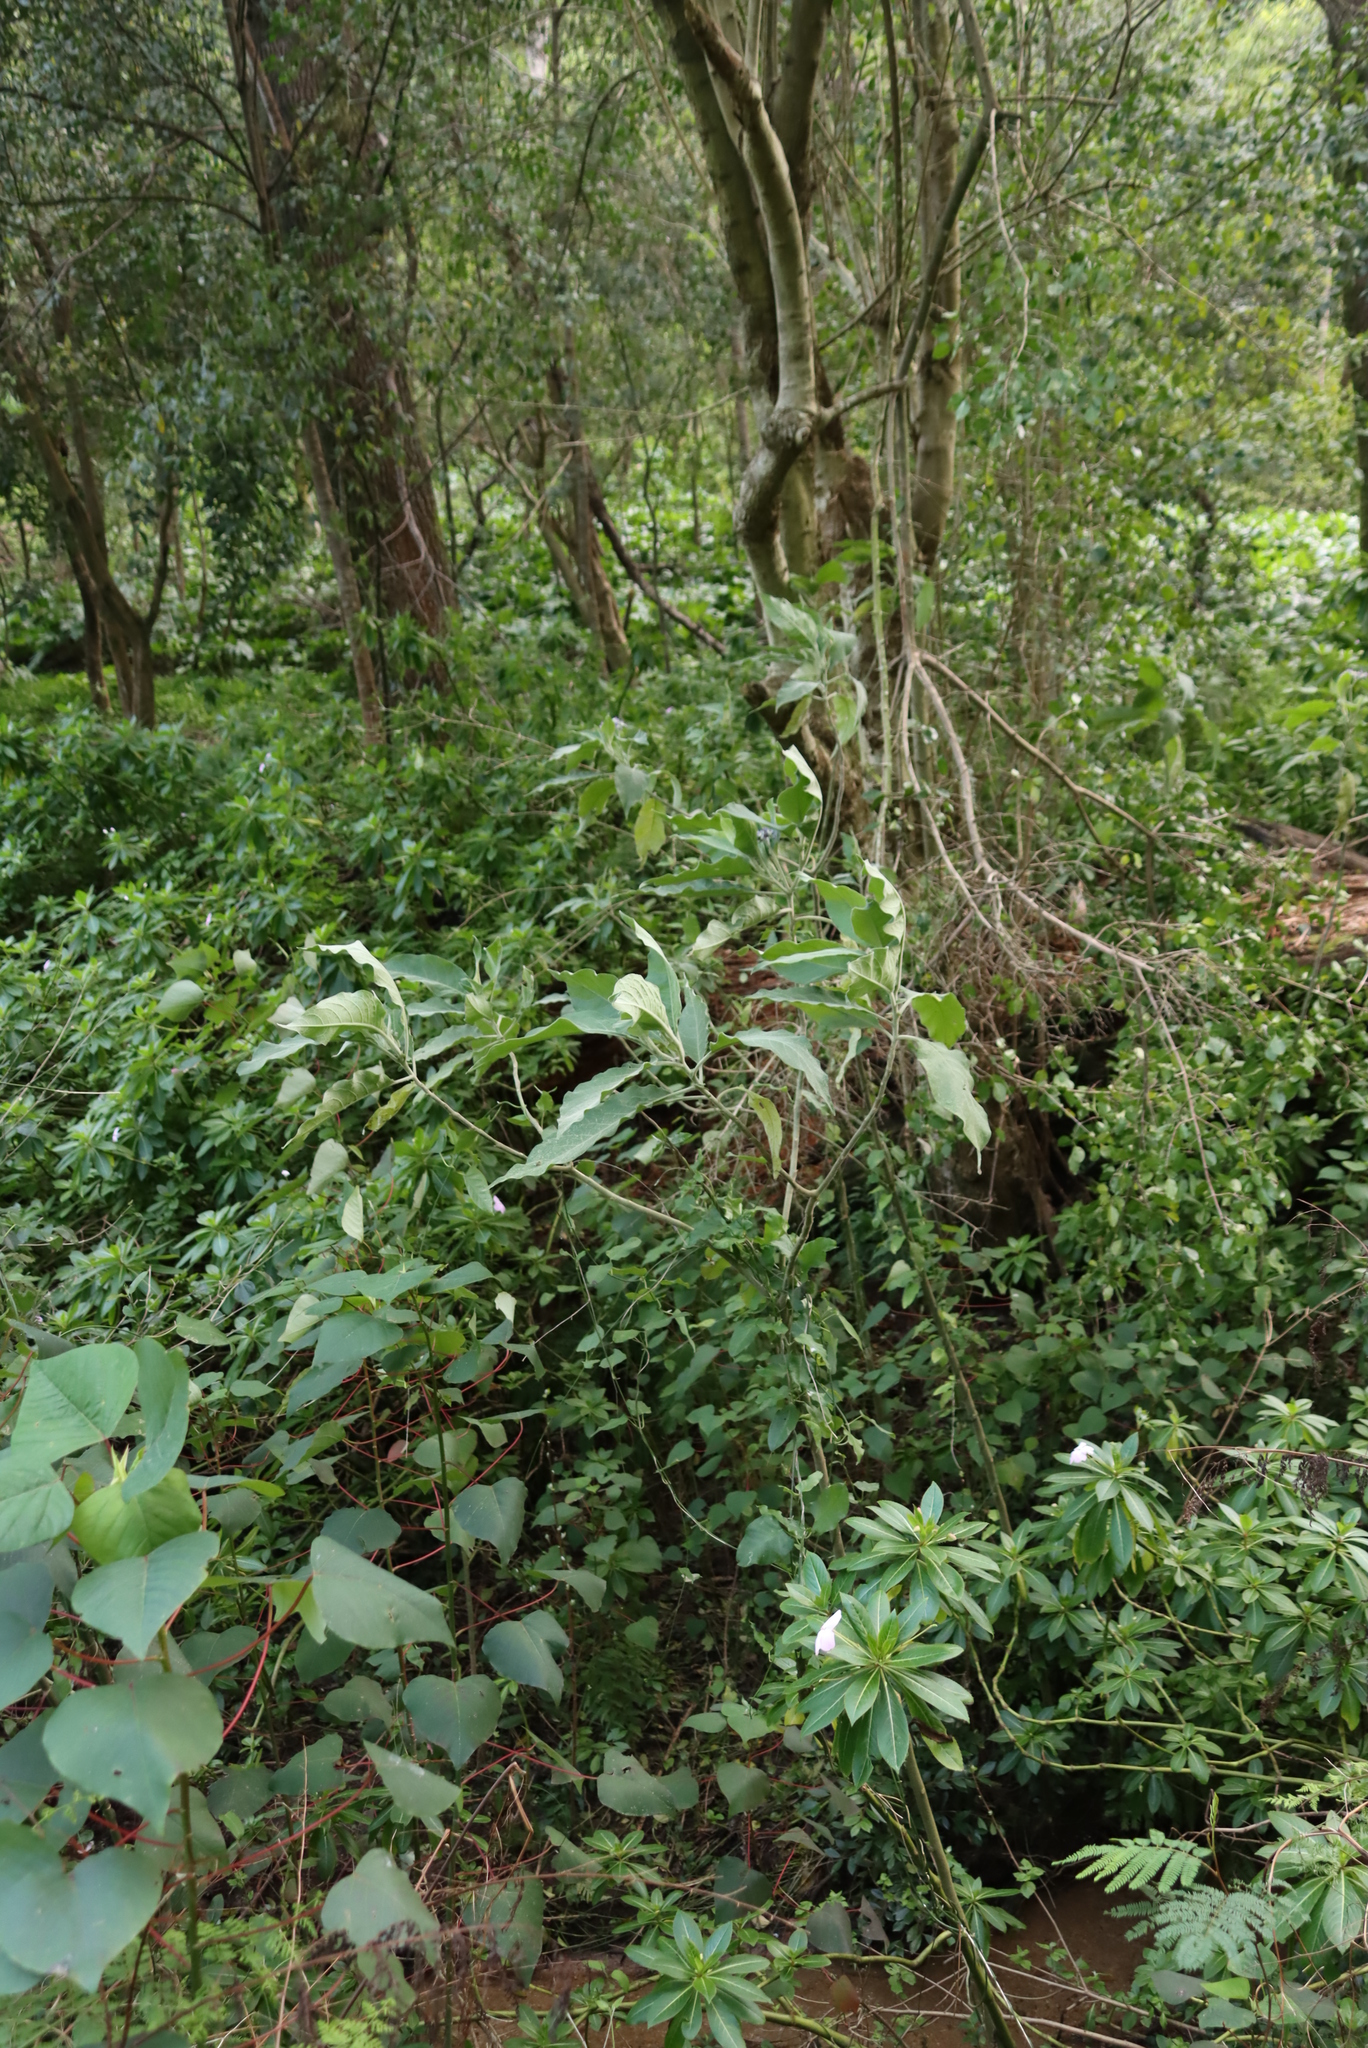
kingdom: Plantae
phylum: Tracheophyta
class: Magnoliopsida
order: Solanales
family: Solanaceae
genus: Solanum
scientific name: Solanum mauritianum
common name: Earleaf nightshade
